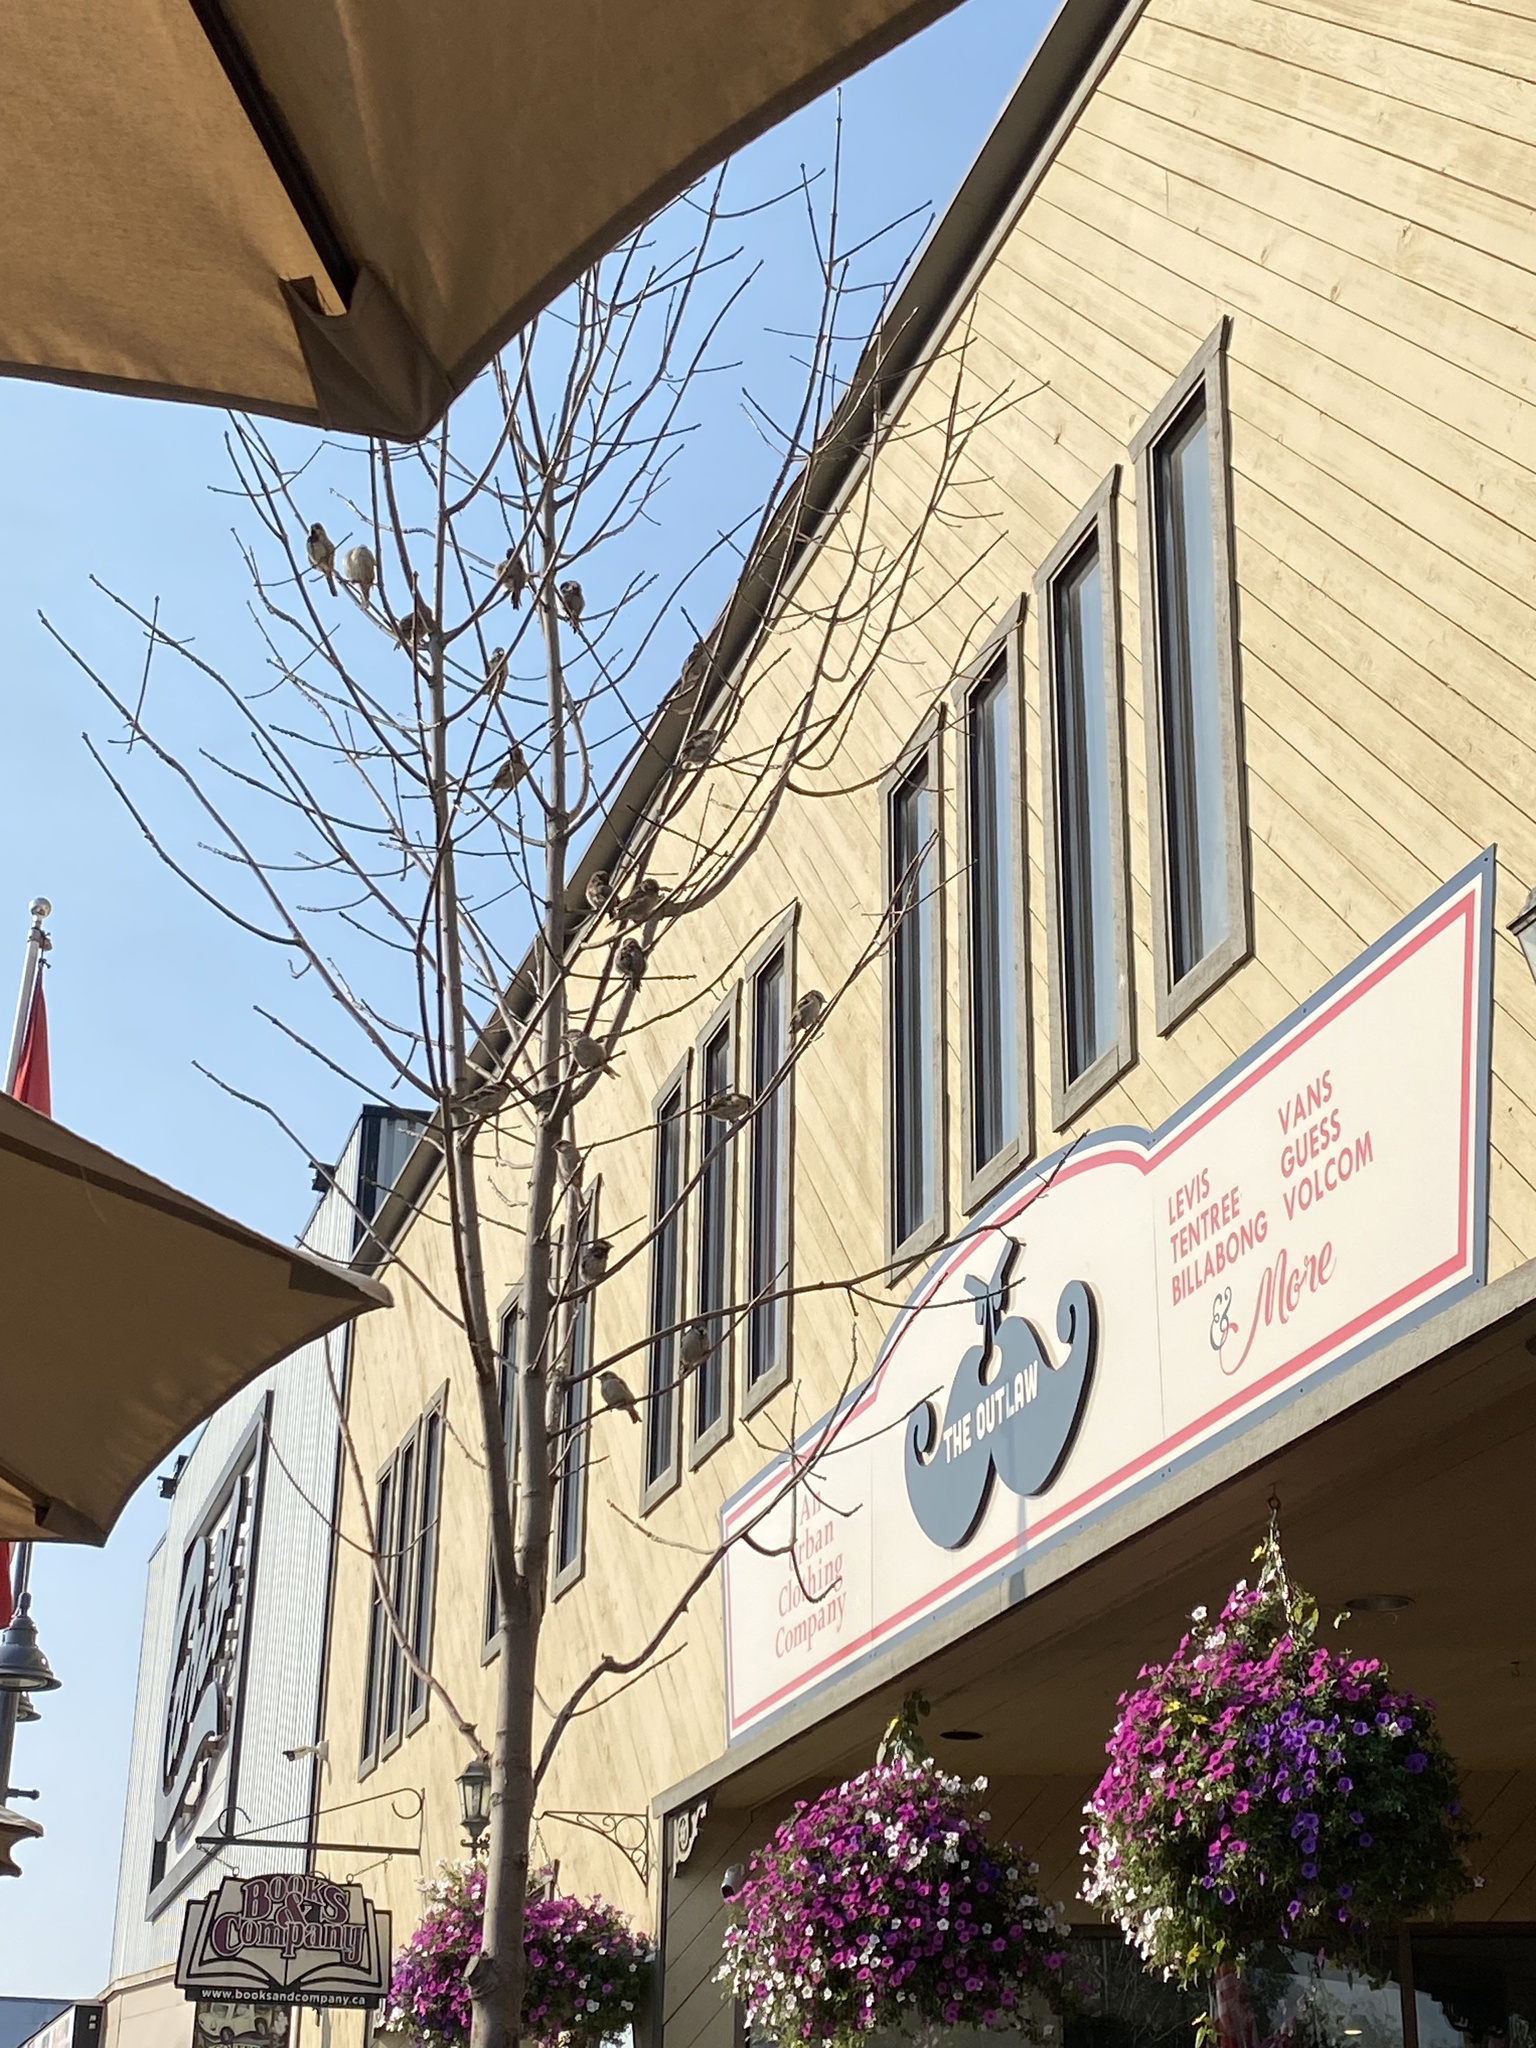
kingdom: Animalia
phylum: Chordata
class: Aves
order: Passeriformes
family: Passeridae
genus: Passer
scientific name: Passer domesticus
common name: House sparrow
